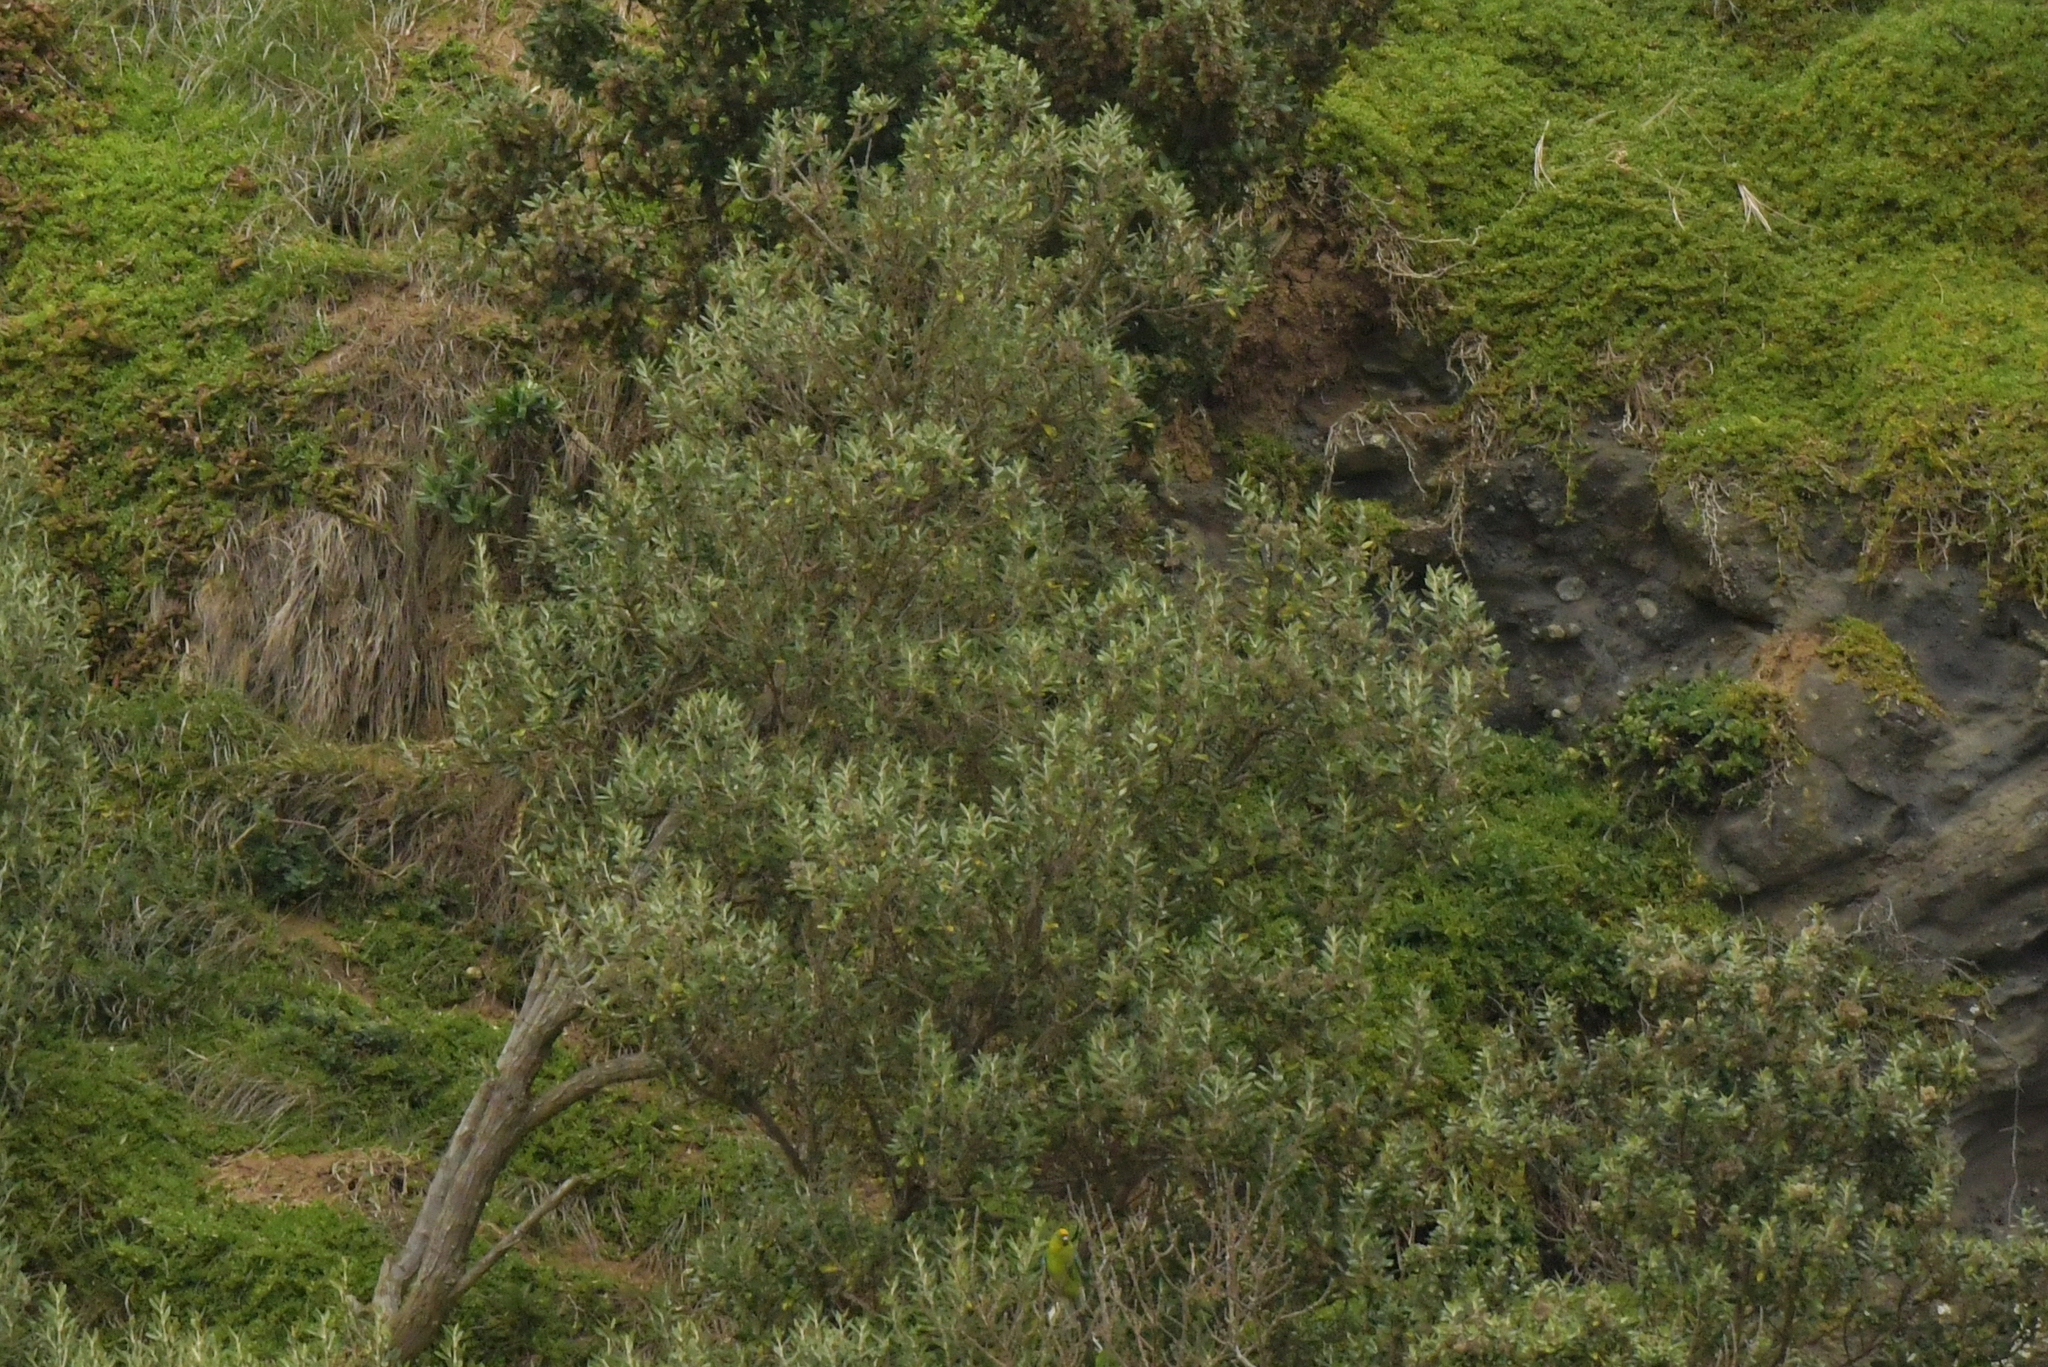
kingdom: Animalia
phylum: Chordata
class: Aves
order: Psittaciformes
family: Psittacidae
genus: Cyanoramphus
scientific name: Cyanoramphus forbesi
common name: Chatham parakeet
